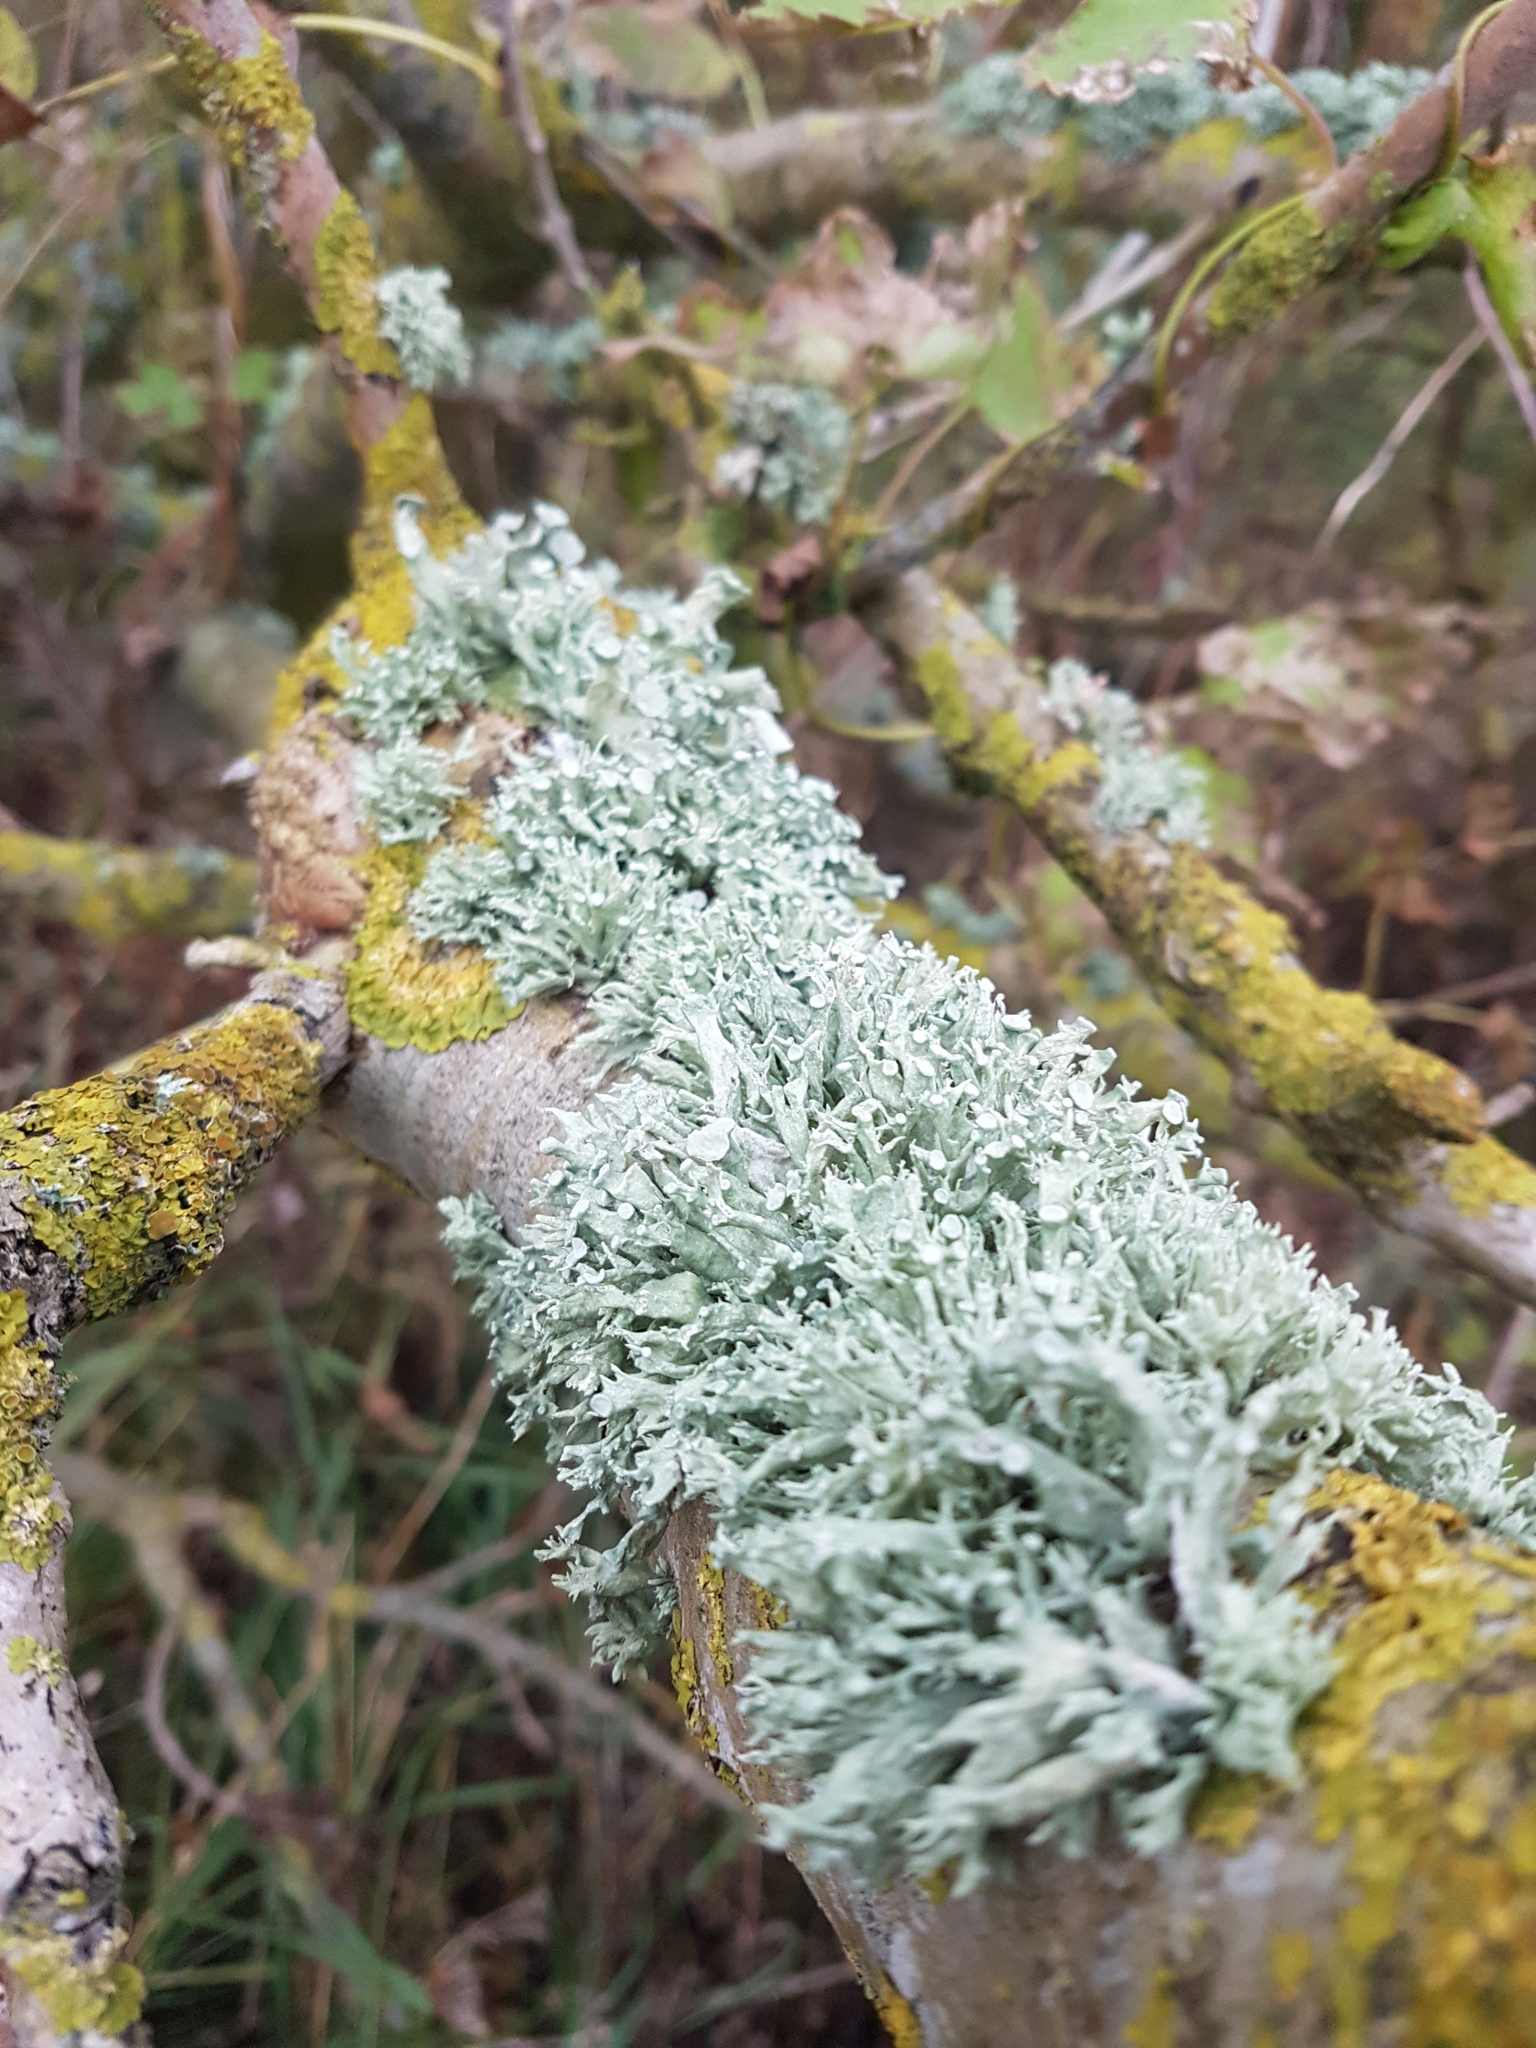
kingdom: Fungi
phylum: Ascomycota
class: Lecanoromycetes
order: Lecanorales
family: Ramalinaceae
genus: Ramalina
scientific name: Ramalina fastigiata
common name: Dotted ribbon lichen
